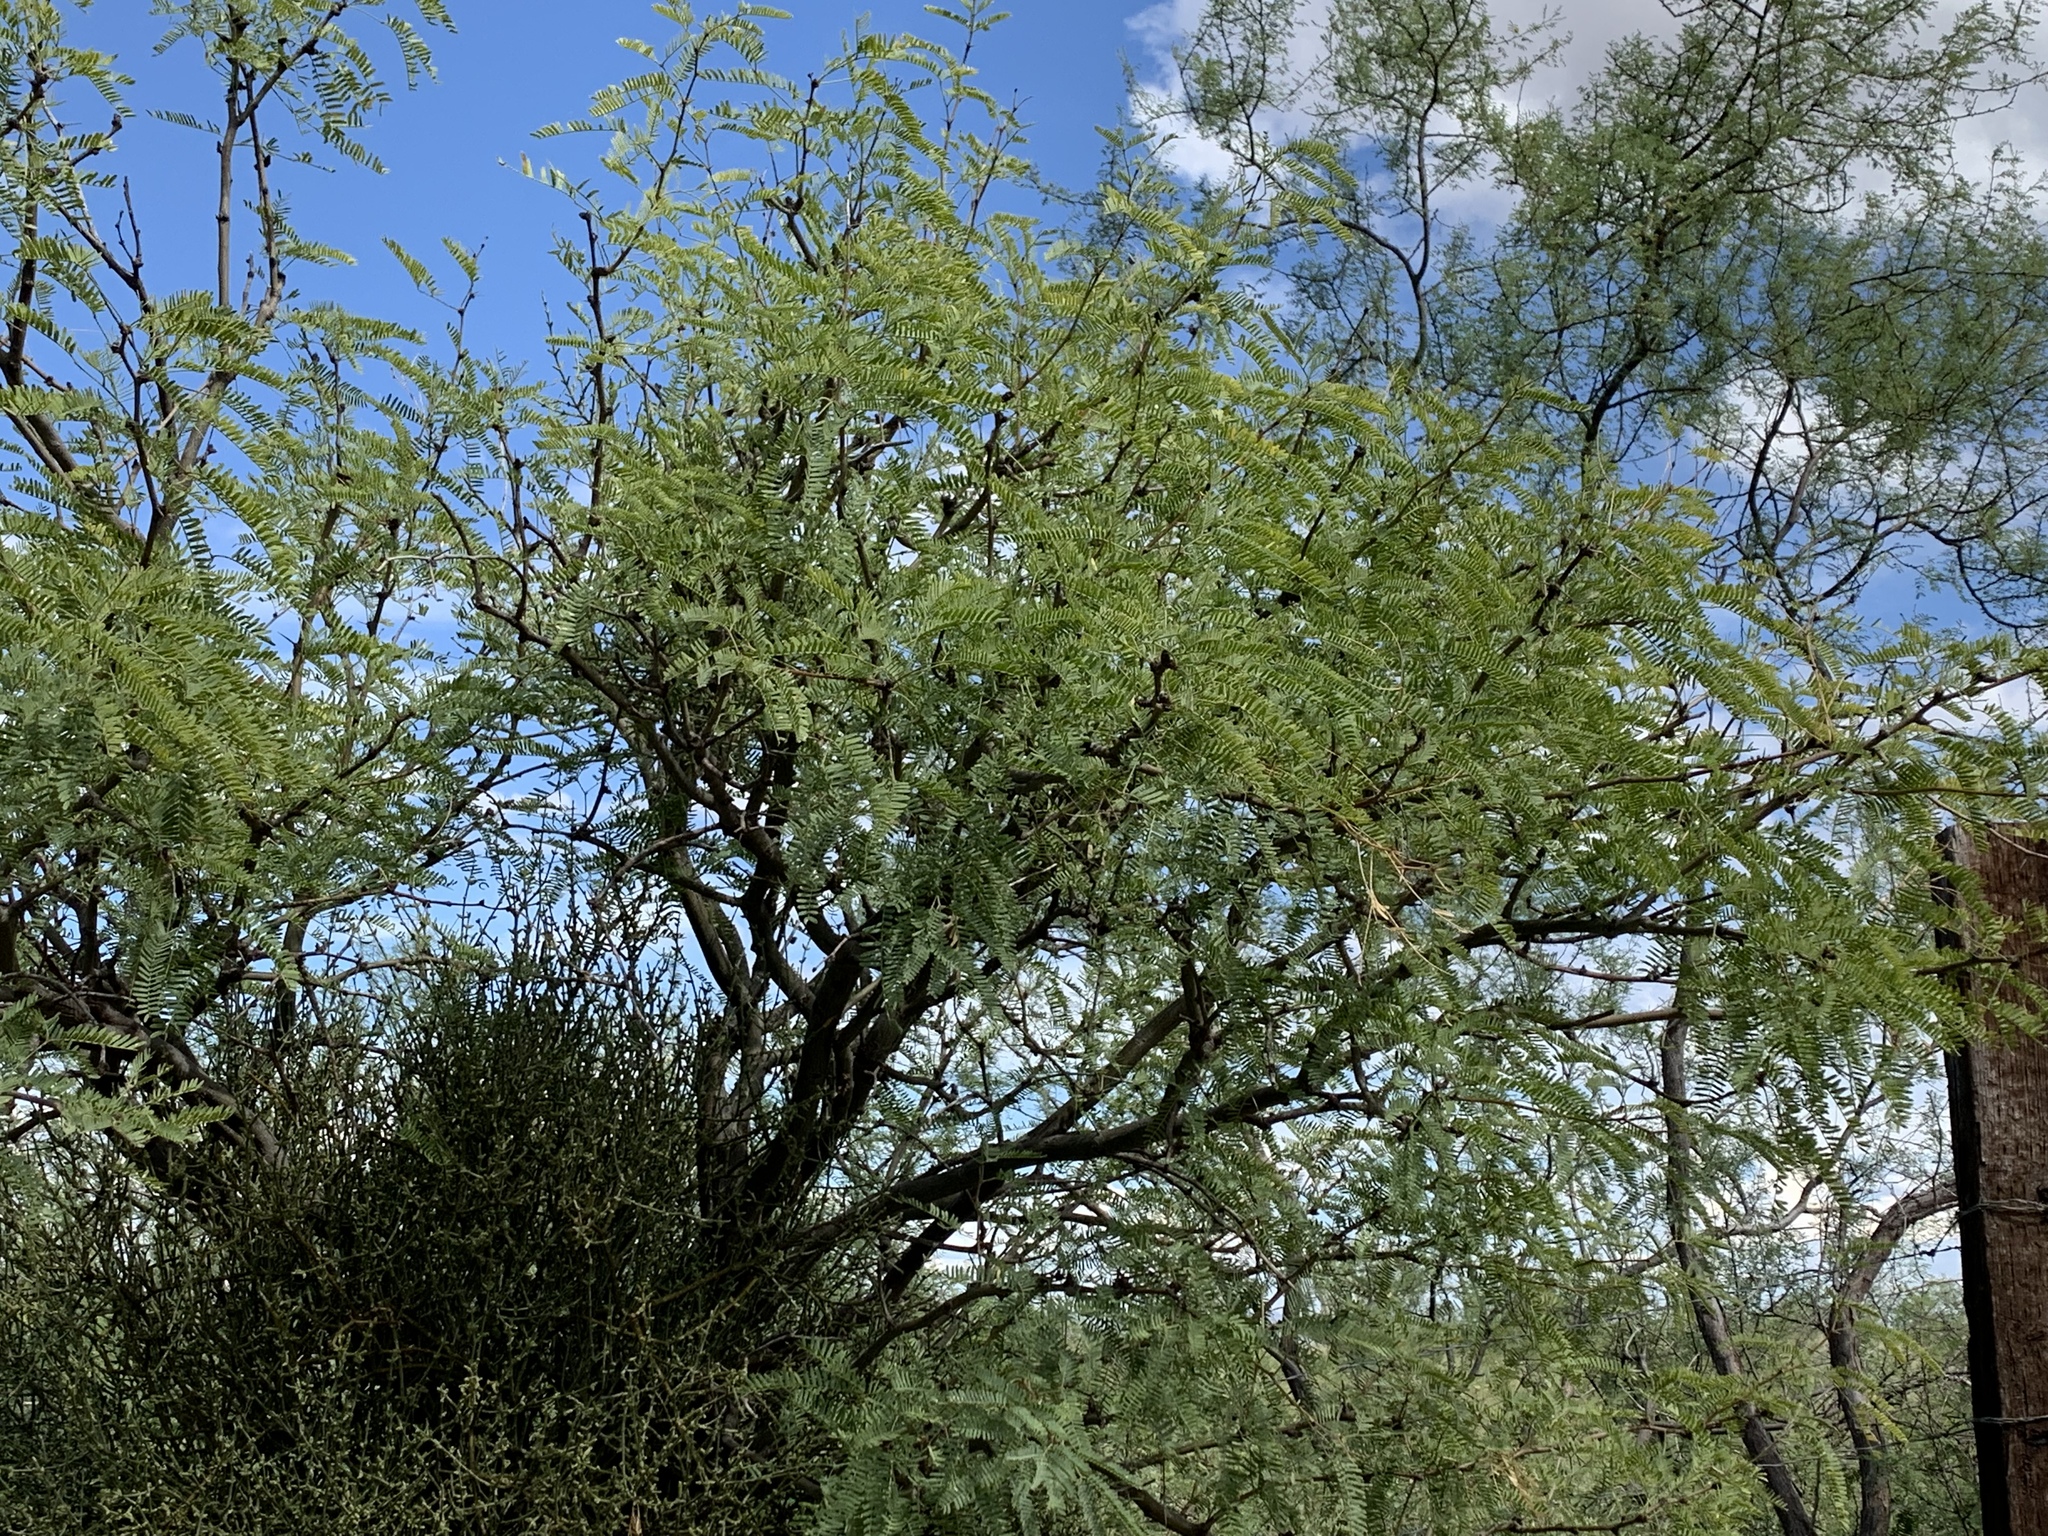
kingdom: Plantae
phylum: Tracheophyta
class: Magnoliopsida
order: Fabales
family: Fabaceae
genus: Prosopis
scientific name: Prosopis velutina
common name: Velvet mesquite
